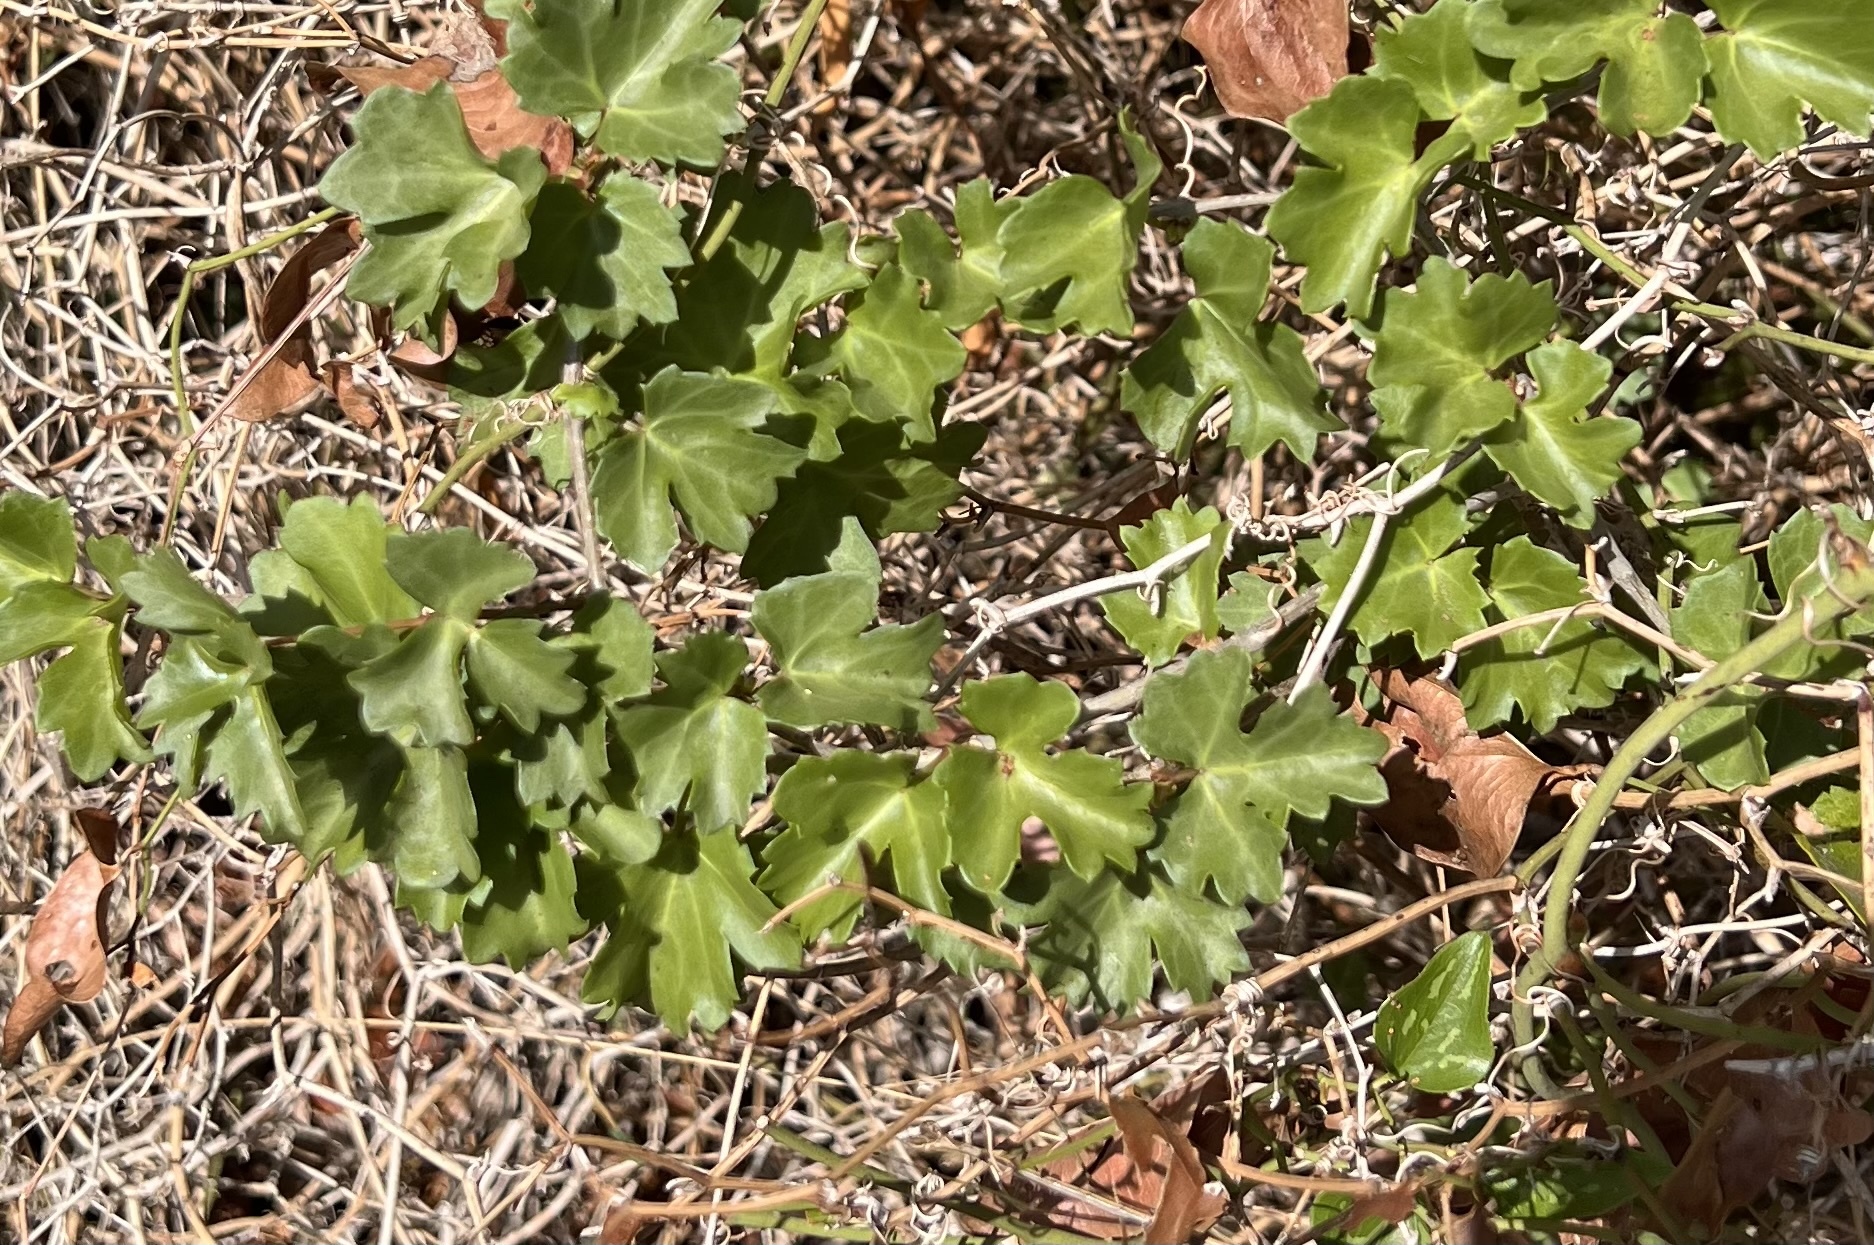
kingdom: Plantae
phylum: Tracheophyta
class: Magnoliopsida
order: Vitales
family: Vitaceae
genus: Cissus
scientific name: Cissus trifoliata
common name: Vine-sorrel
